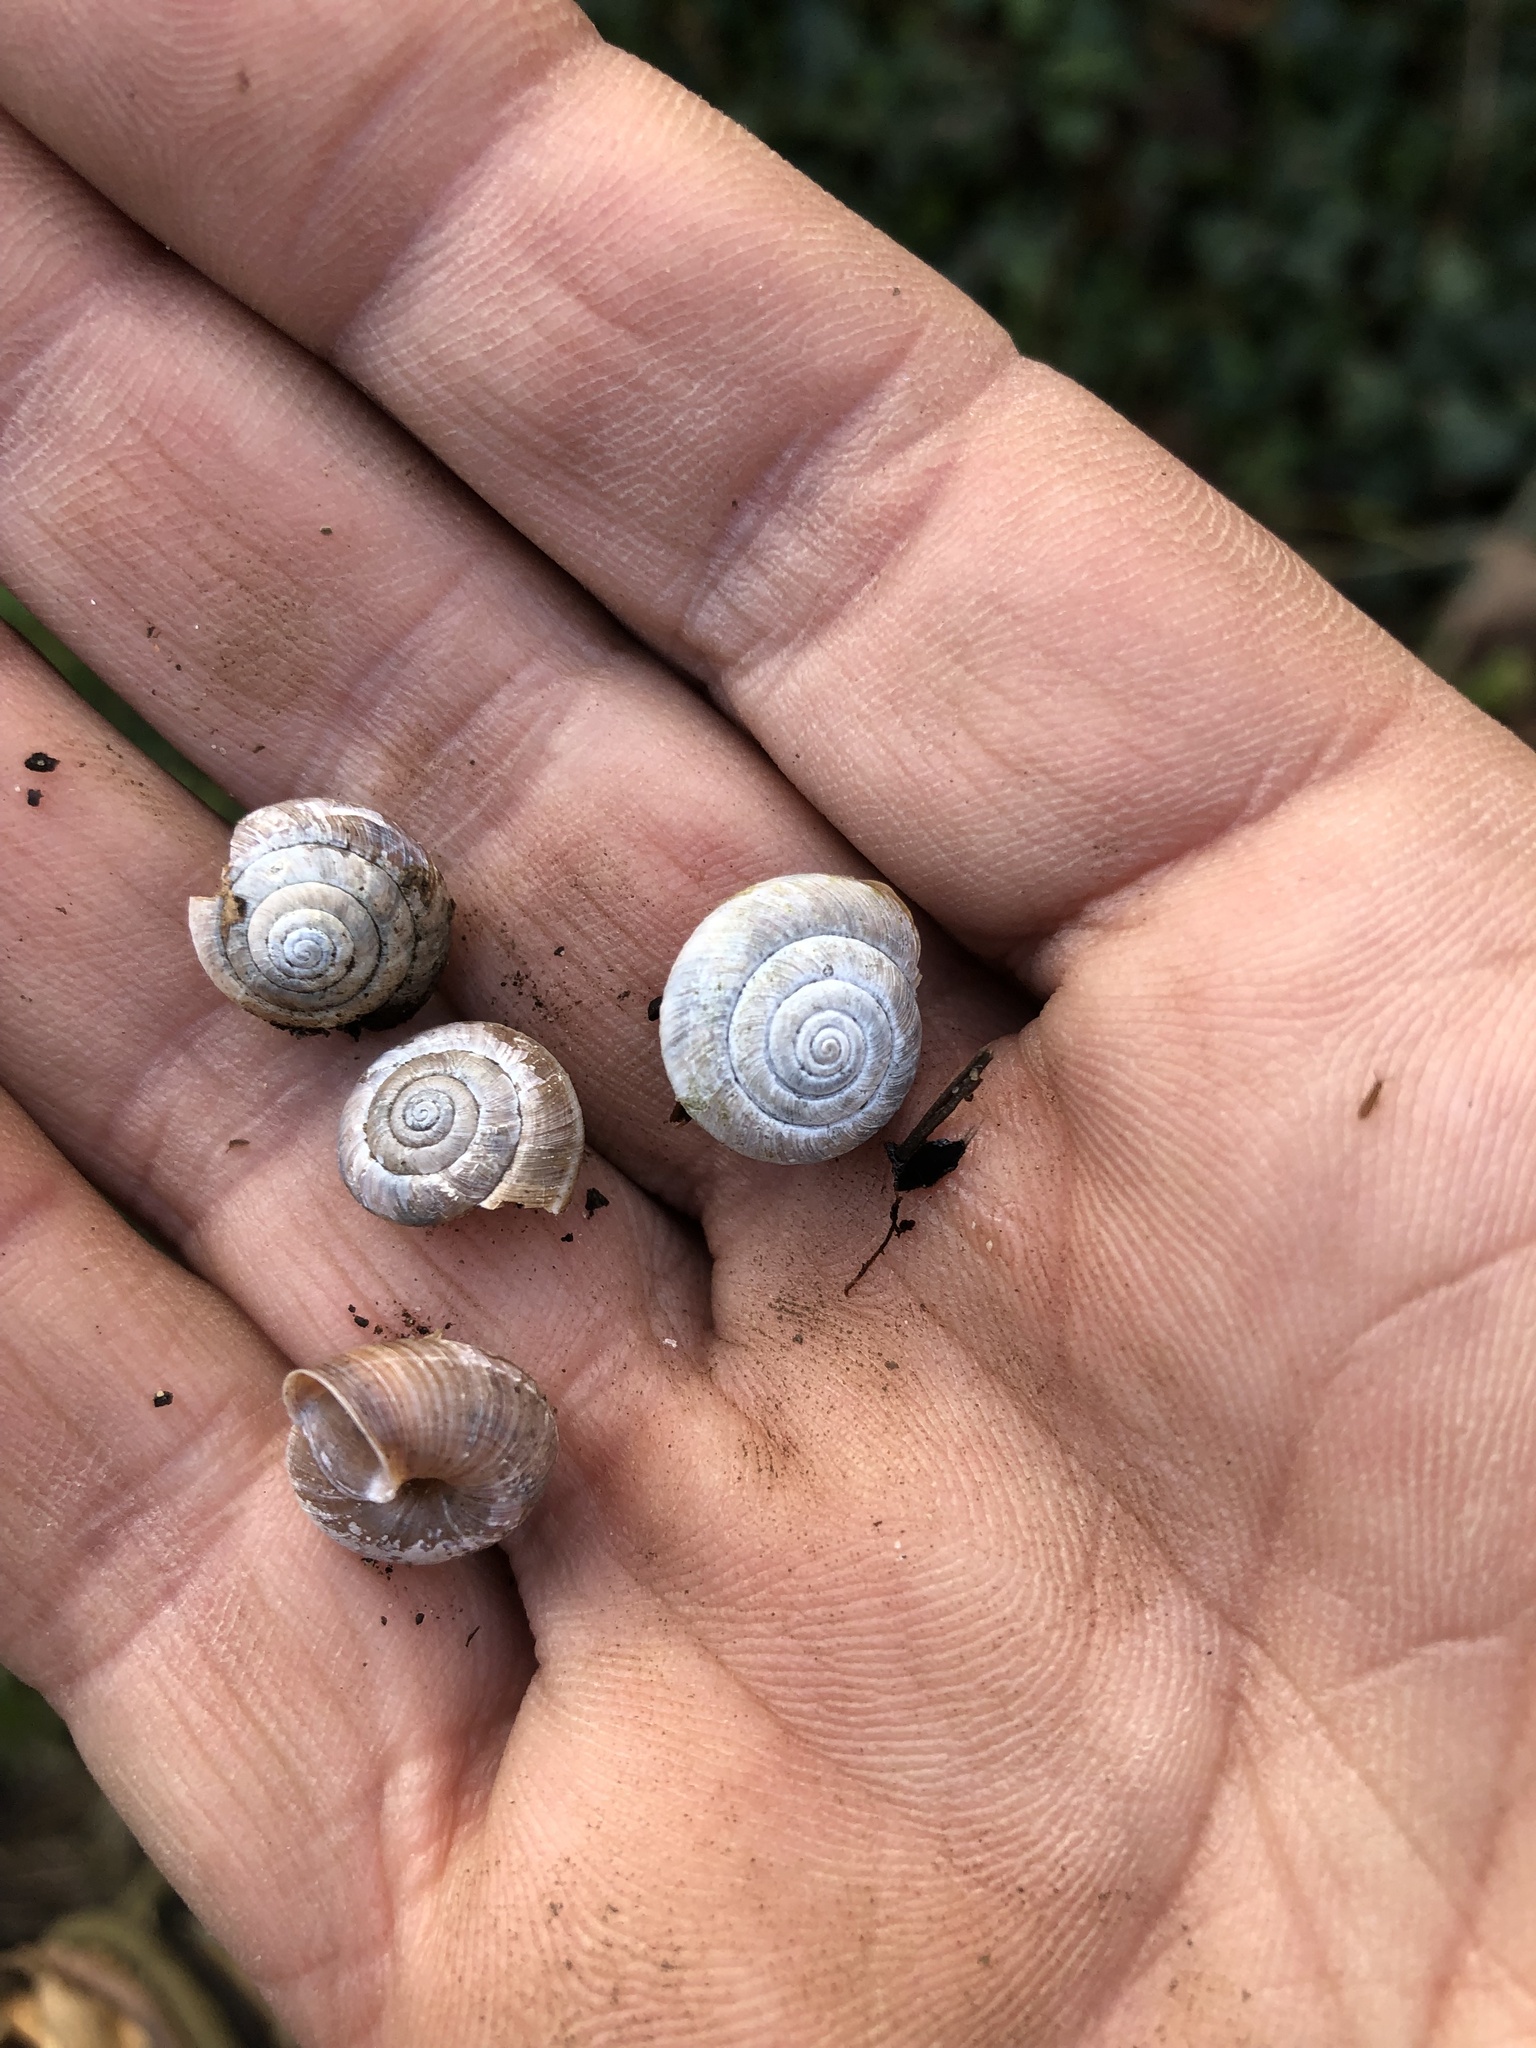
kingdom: Animalia
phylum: Mollusca
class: Gastropoda
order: Stylommatophora
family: Hygromiidae
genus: Trochulus
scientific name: Trochulus striolatus
